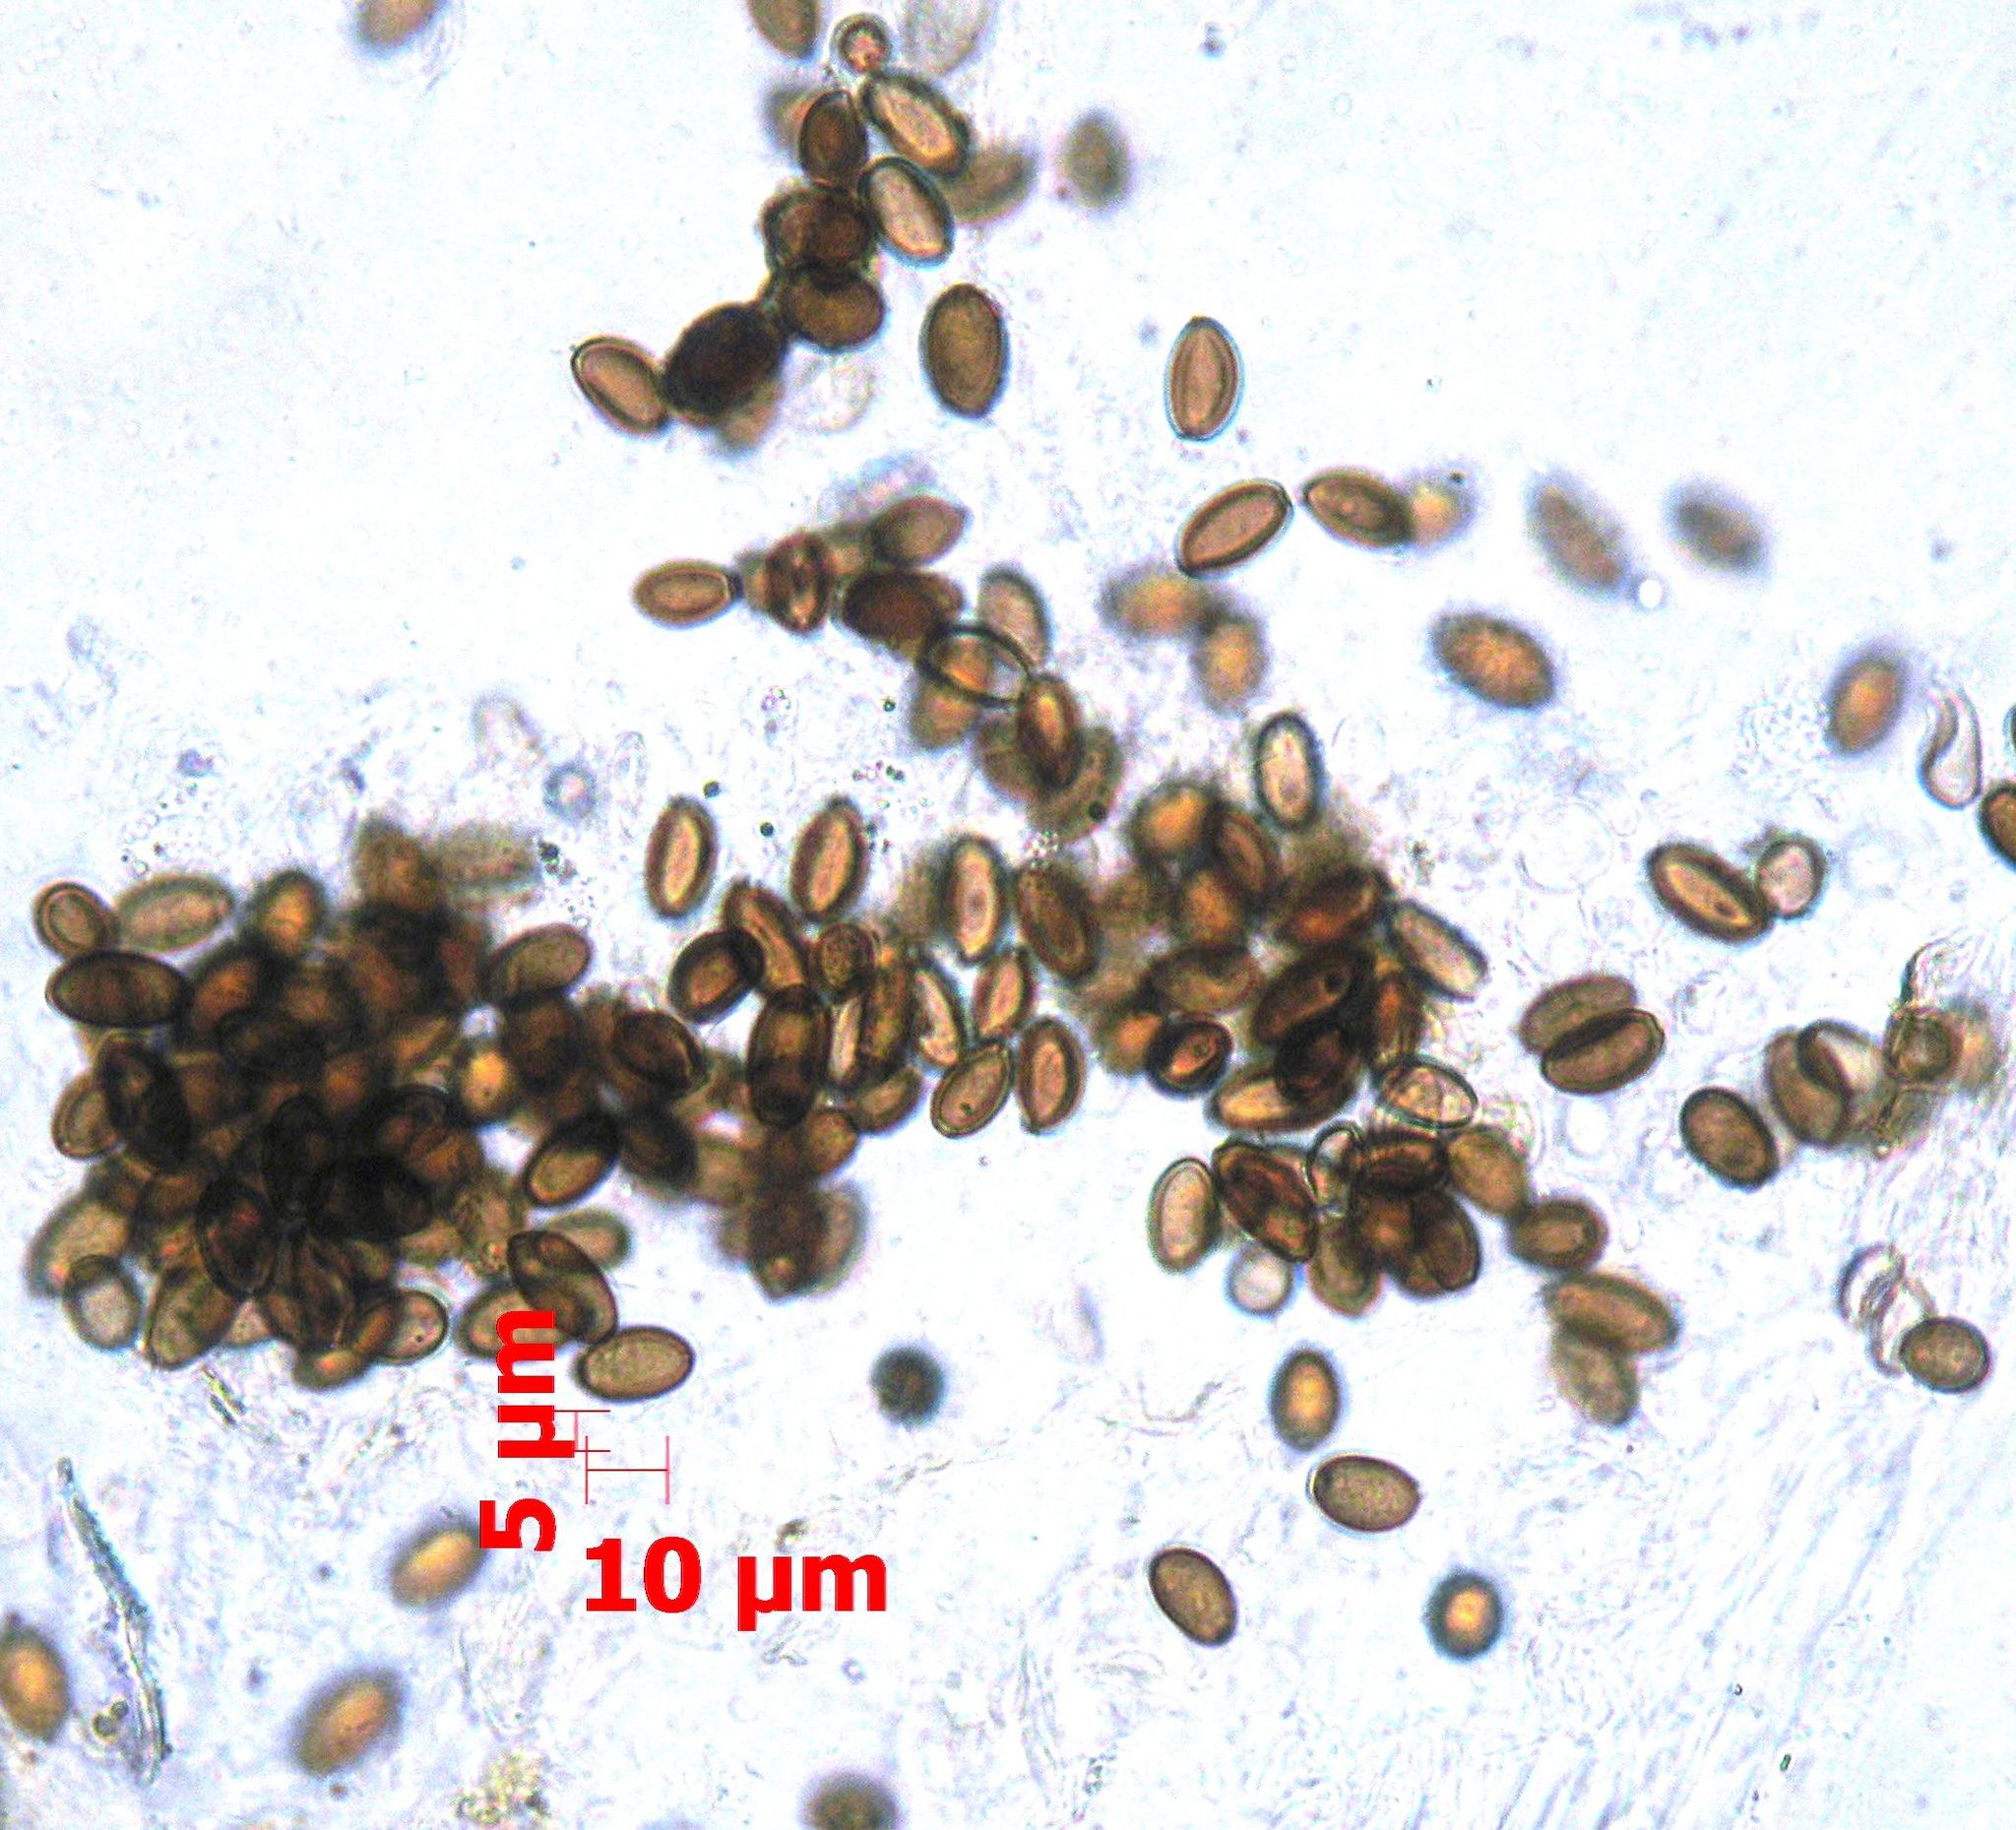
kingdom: Fungi
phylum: Basidiomycota
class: Agaricomycetes
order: Agaricales
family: Strophariaceae
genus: Agrocybe
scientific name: Agrocybe pediades
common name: Common fieldcap
